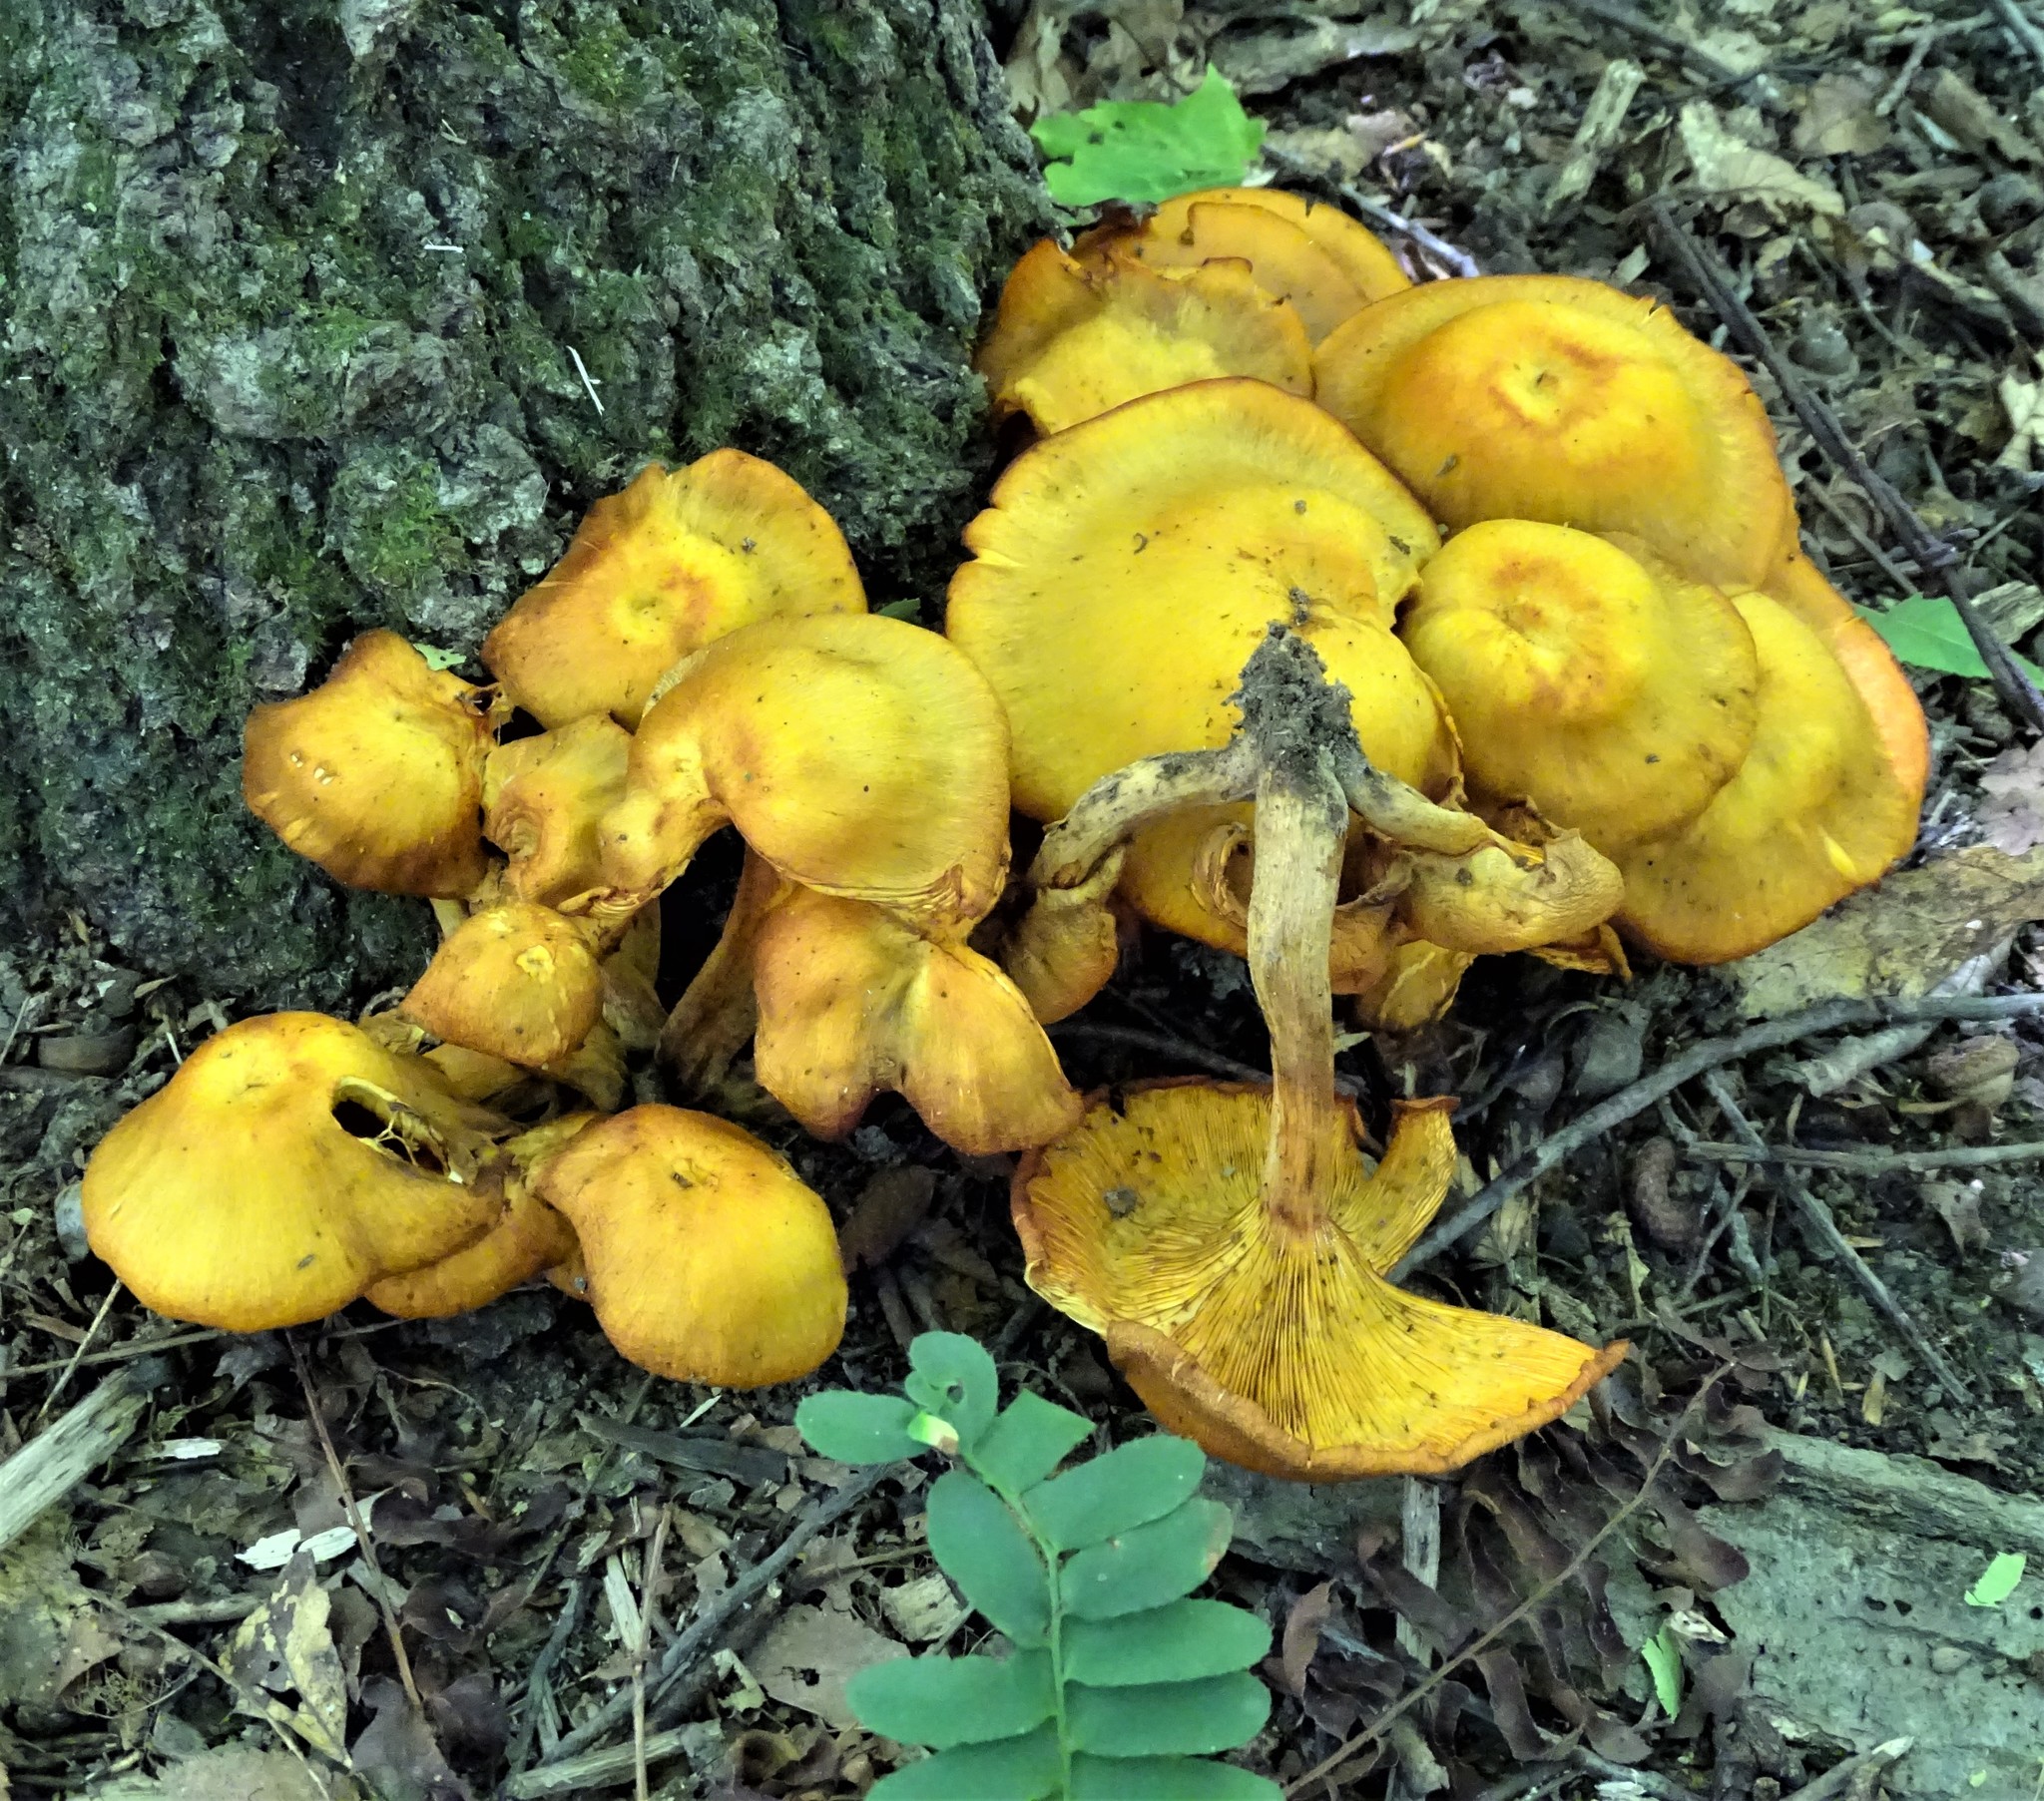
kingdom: Fungi
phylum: Basidiomycota
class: Agaricomycetes
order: Agaricales
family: Omphalotaceae
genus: Omphalotus
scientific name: Omphalotus illudens
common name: Jack o lantern
